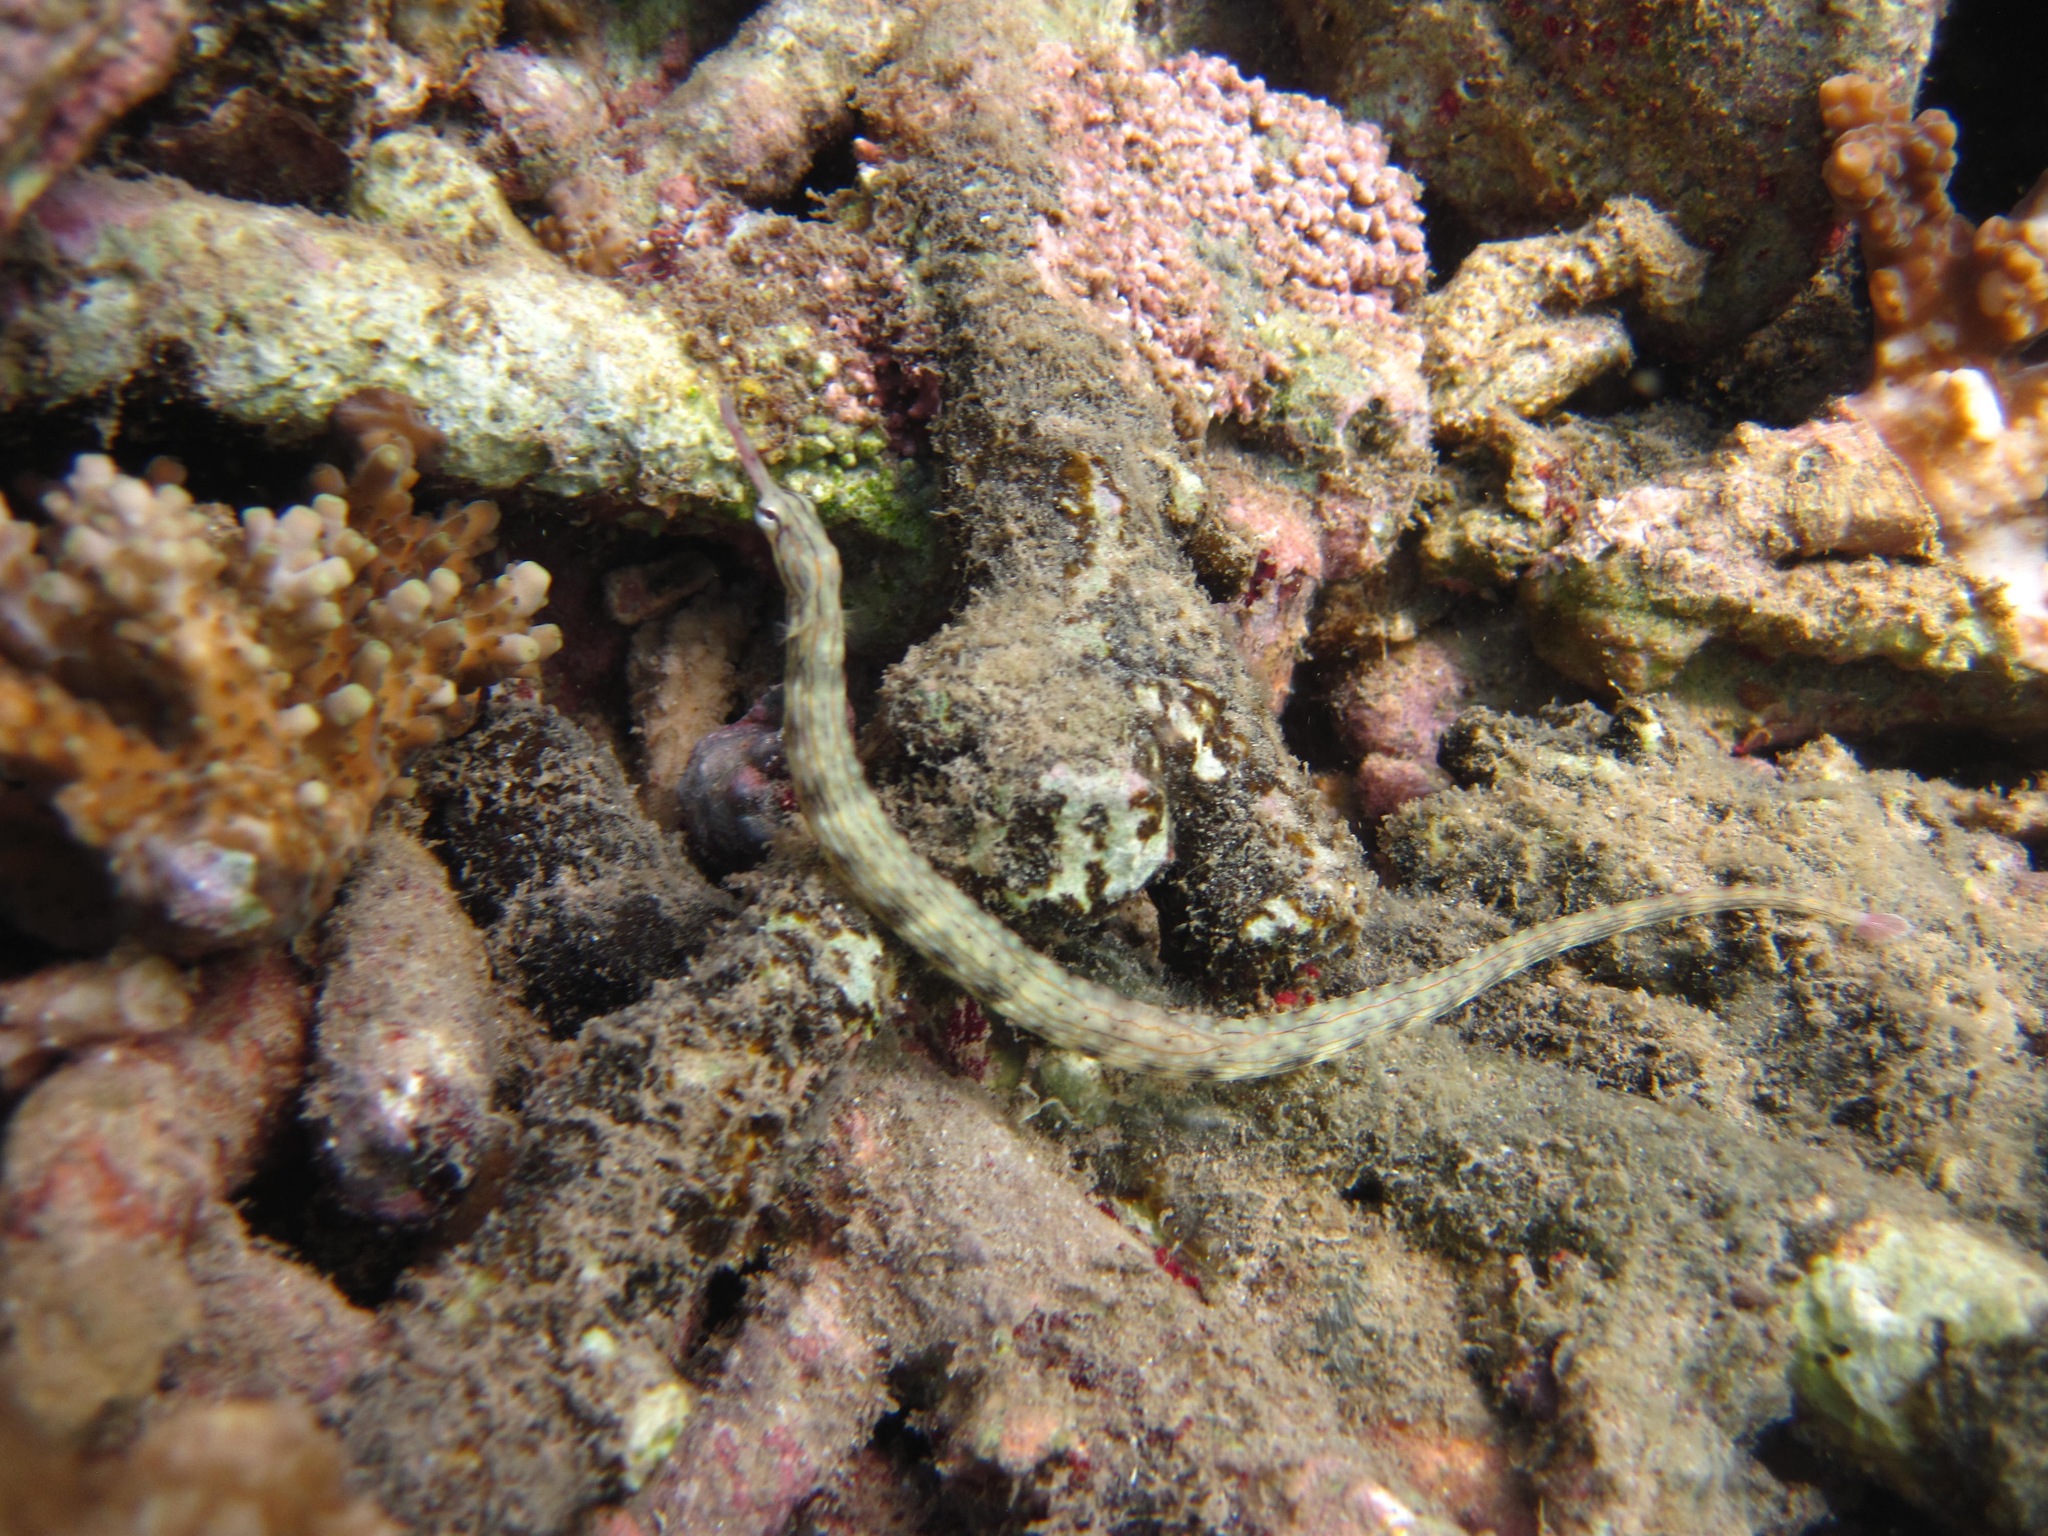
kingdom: Animalia
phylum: Chordata
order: Syngnathiformes
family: Syngnathidae
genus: Corythoichthys
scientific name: Corythoichthys haematopterus
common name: Bloodspot pipefish
